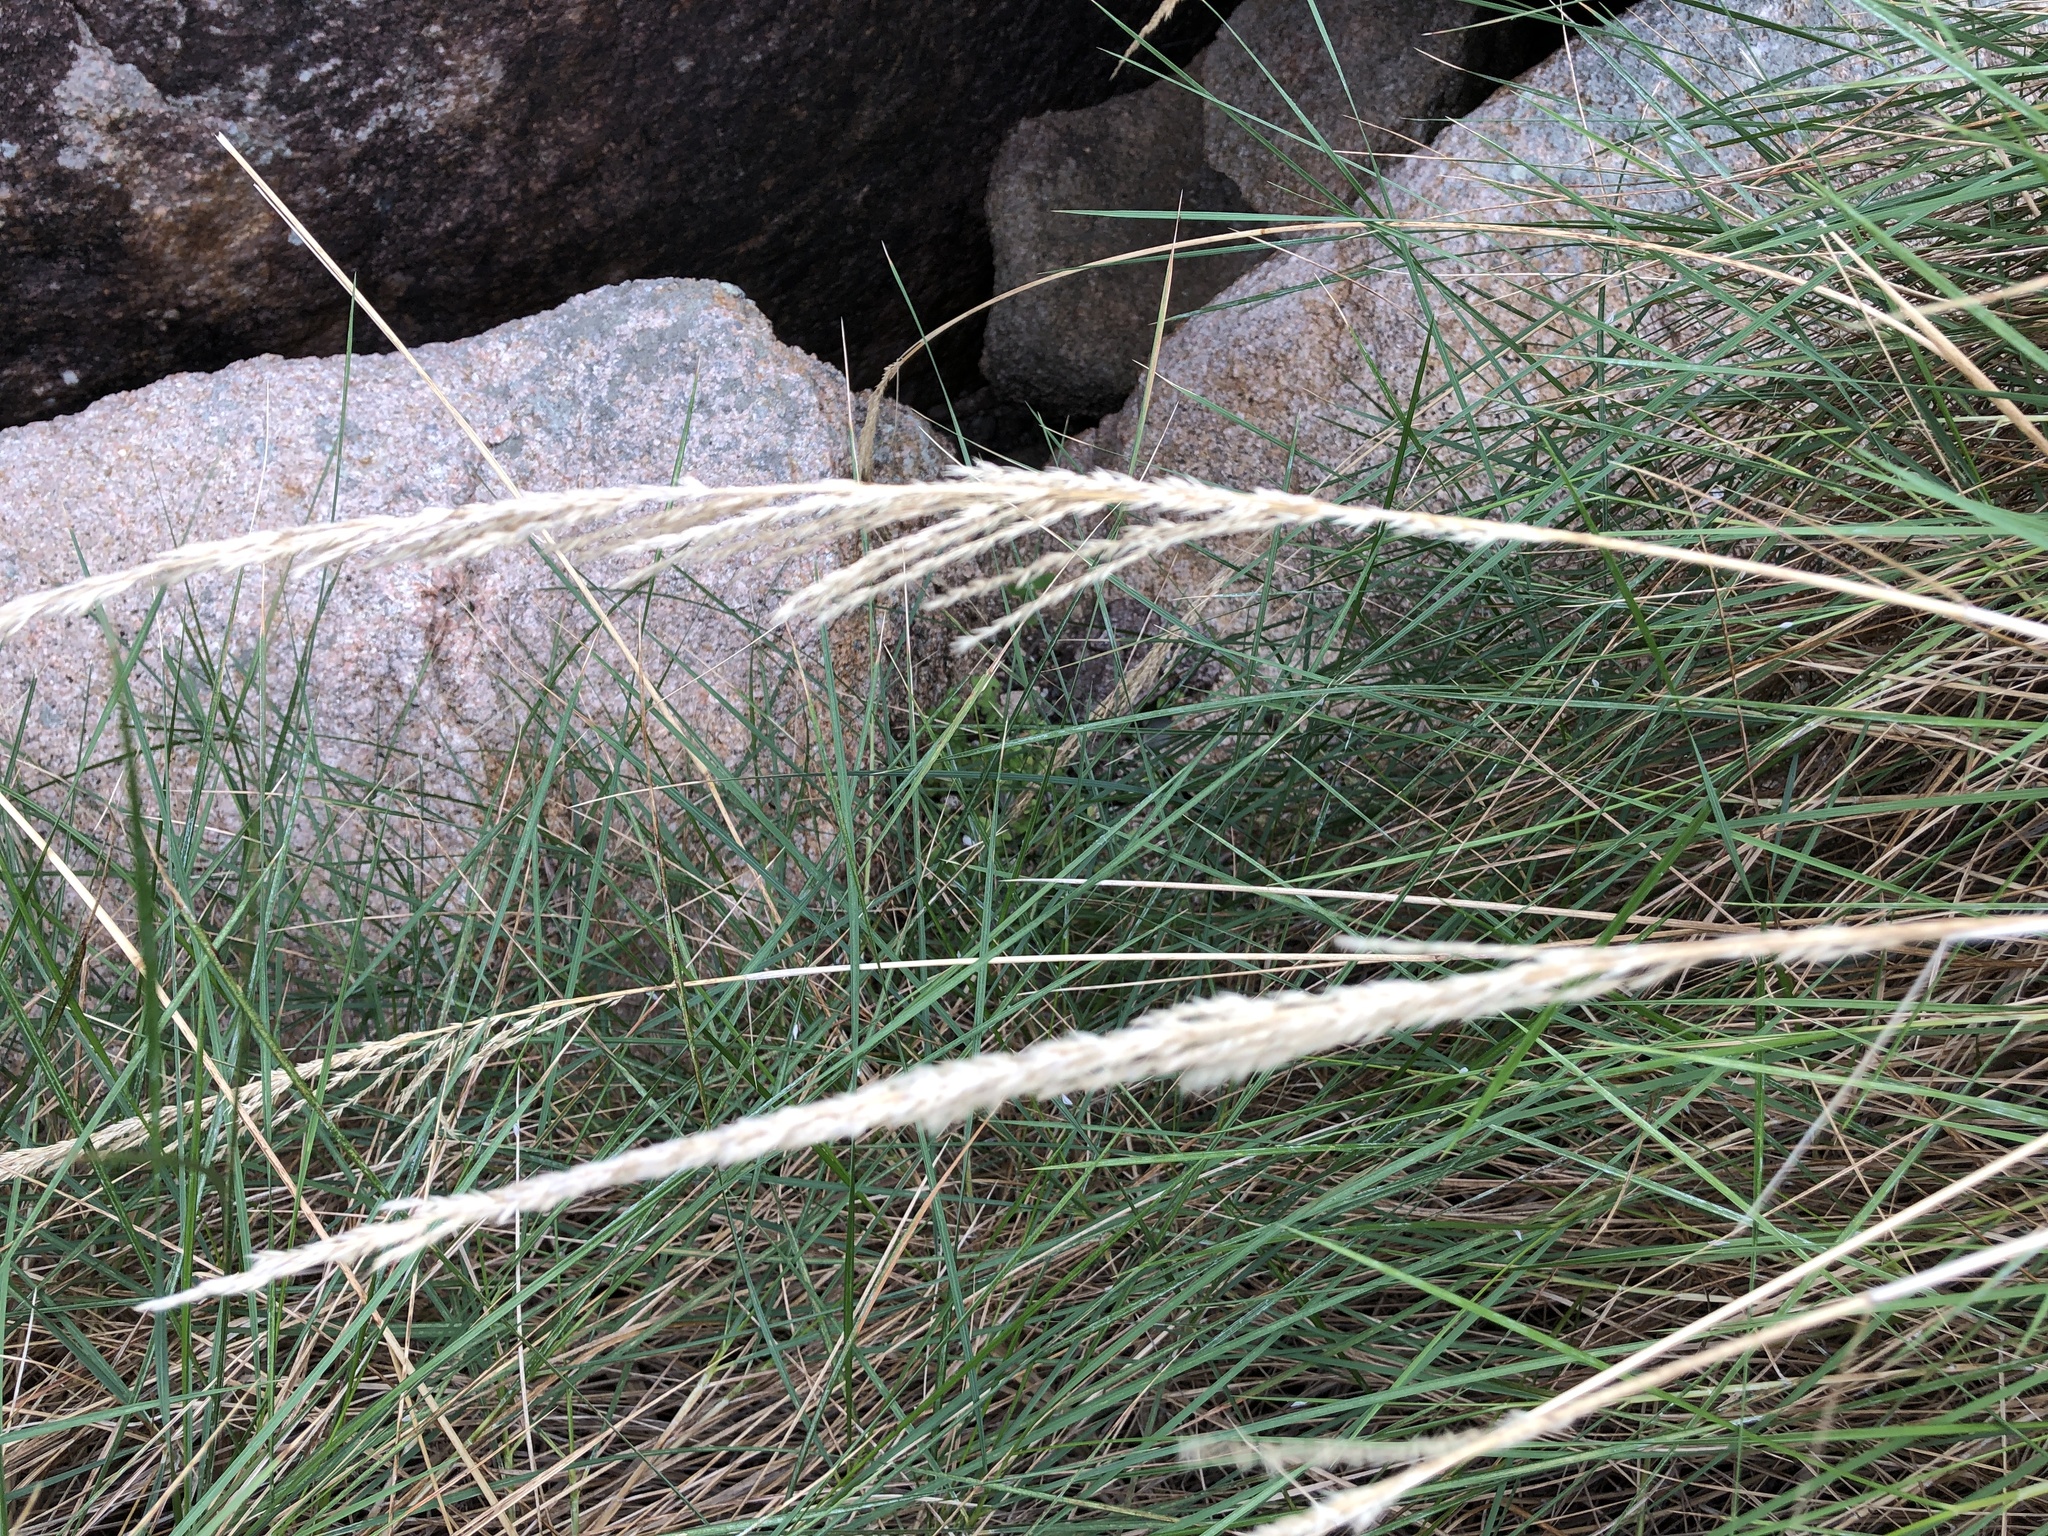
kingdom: Plantae
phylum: Tracheophyta
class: Liliopsida
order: Poales
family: Poaceae
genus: Triodia
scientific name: Triodia stenostachya
